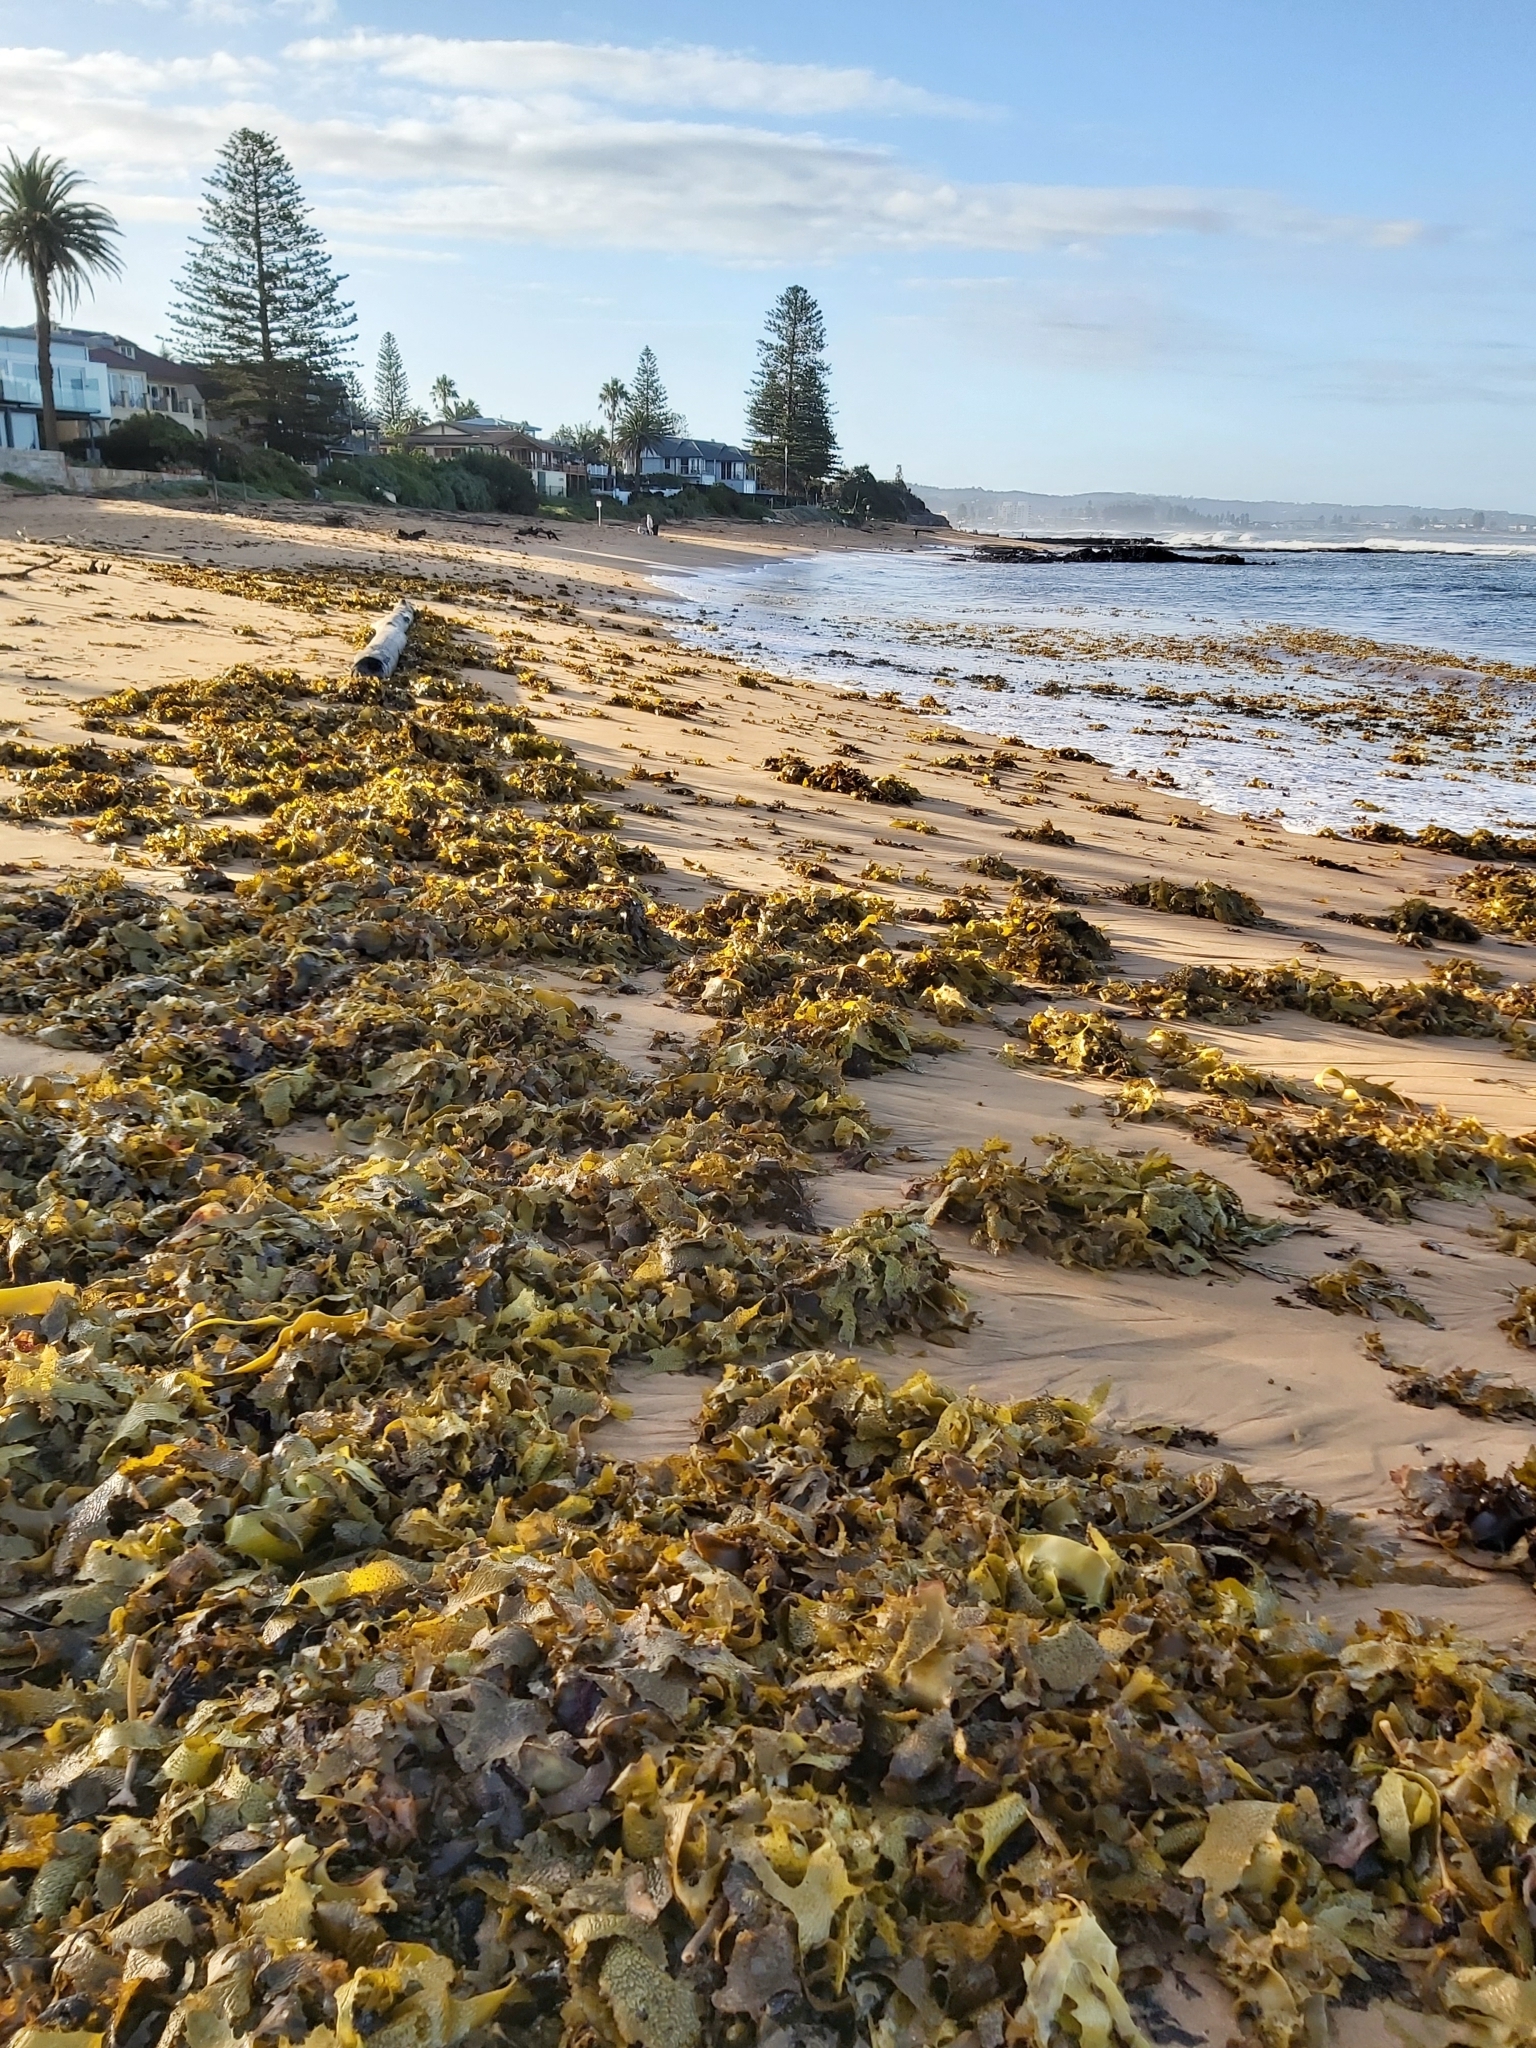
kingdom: Chromista
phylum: Ochrophyta
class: Phaeophyceae
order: Laminariales
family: Lessoniaceae
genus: Ecklonia
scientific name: Ecklonia radiata
